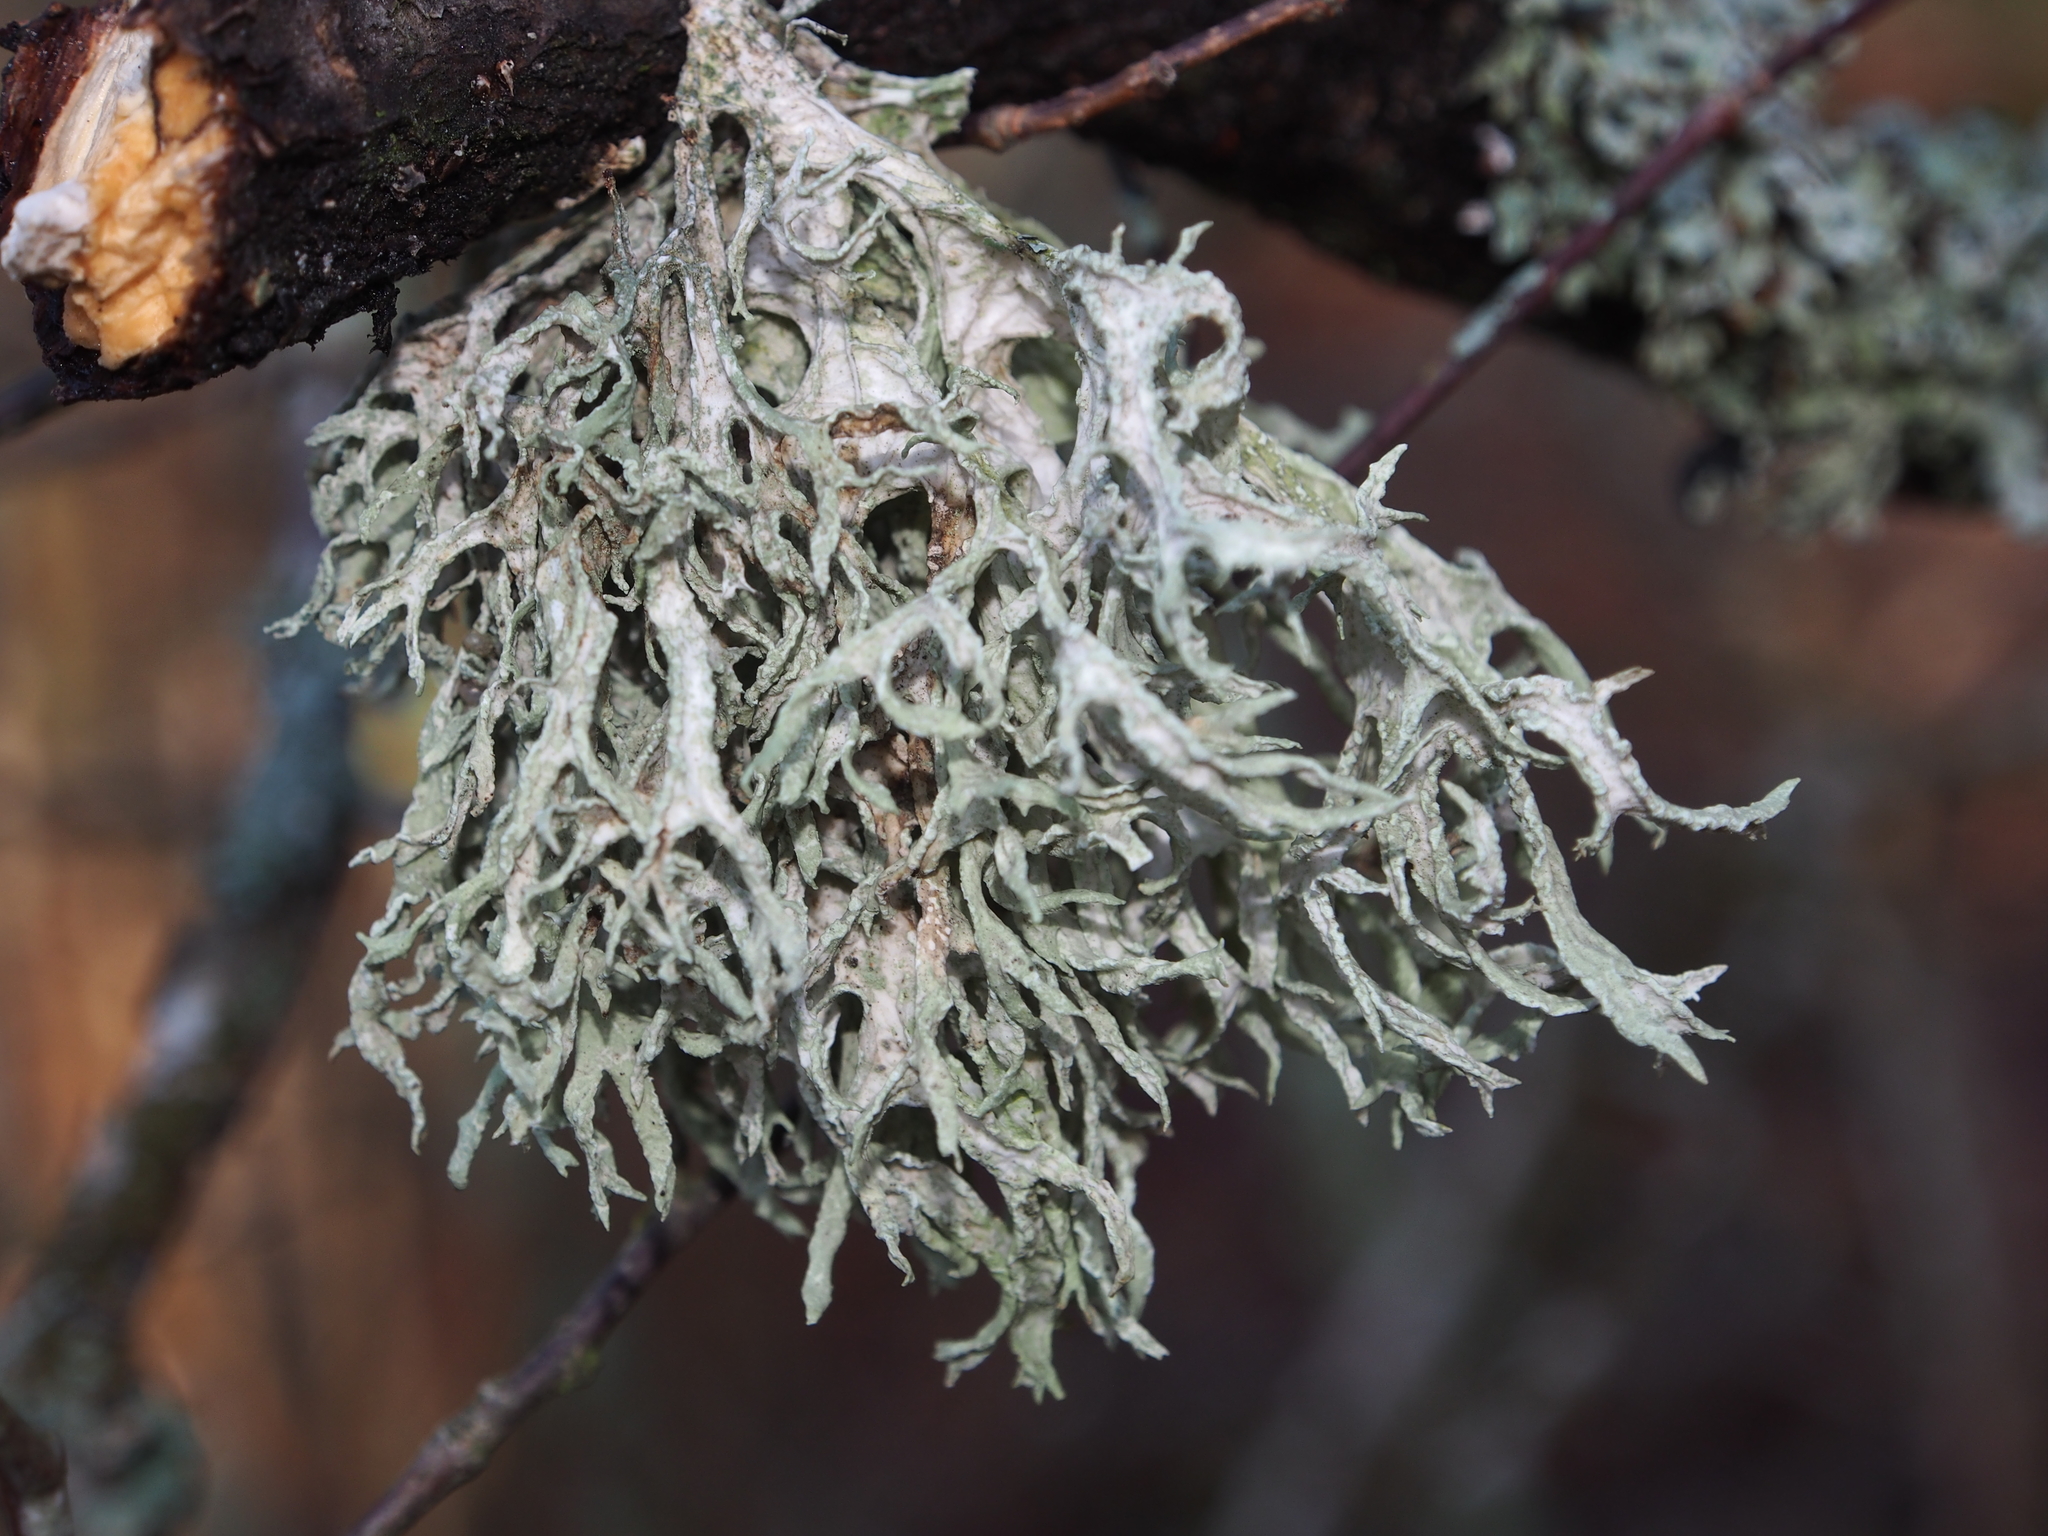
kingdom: Fungi
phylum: Ascomycota
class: Lecanoromycetes
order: Lecanorales
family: Parmeliaceae
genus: Evernia
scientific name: Evernia prunastri
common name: Oak moss
